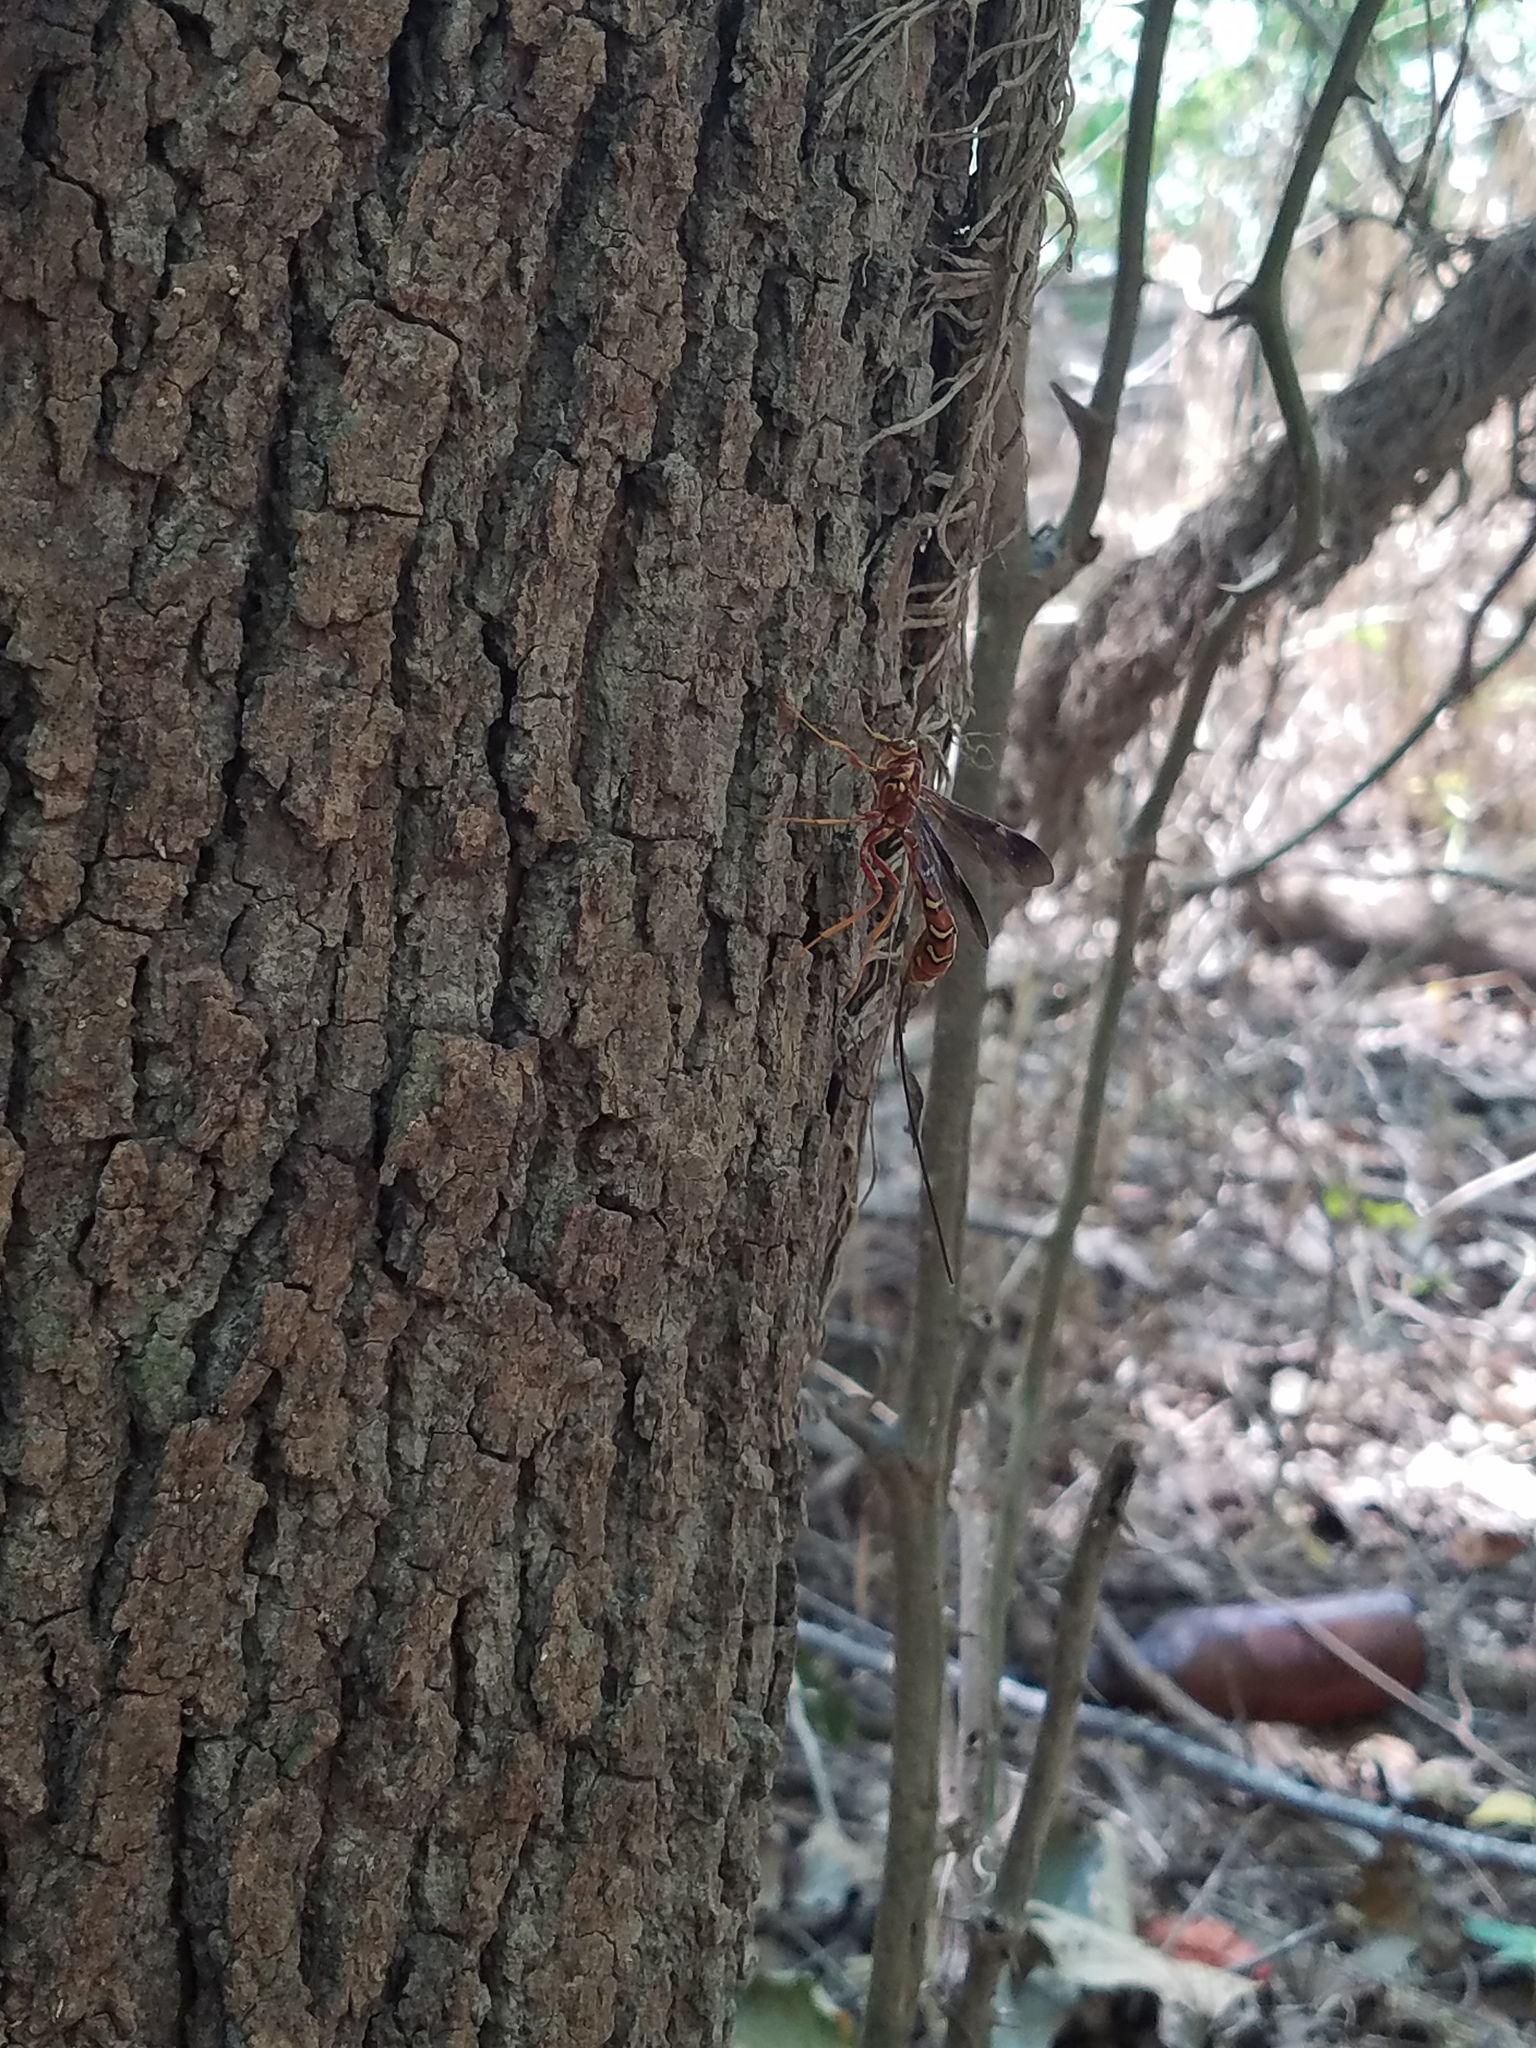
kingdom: Animalia
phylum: Arthropoda
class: Insecta
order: Hymenoptera
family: Ichneumonidae
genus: Megarhyssa
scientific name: Megarhyssa greenei
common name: Greene's giant ichneumonid wasp
